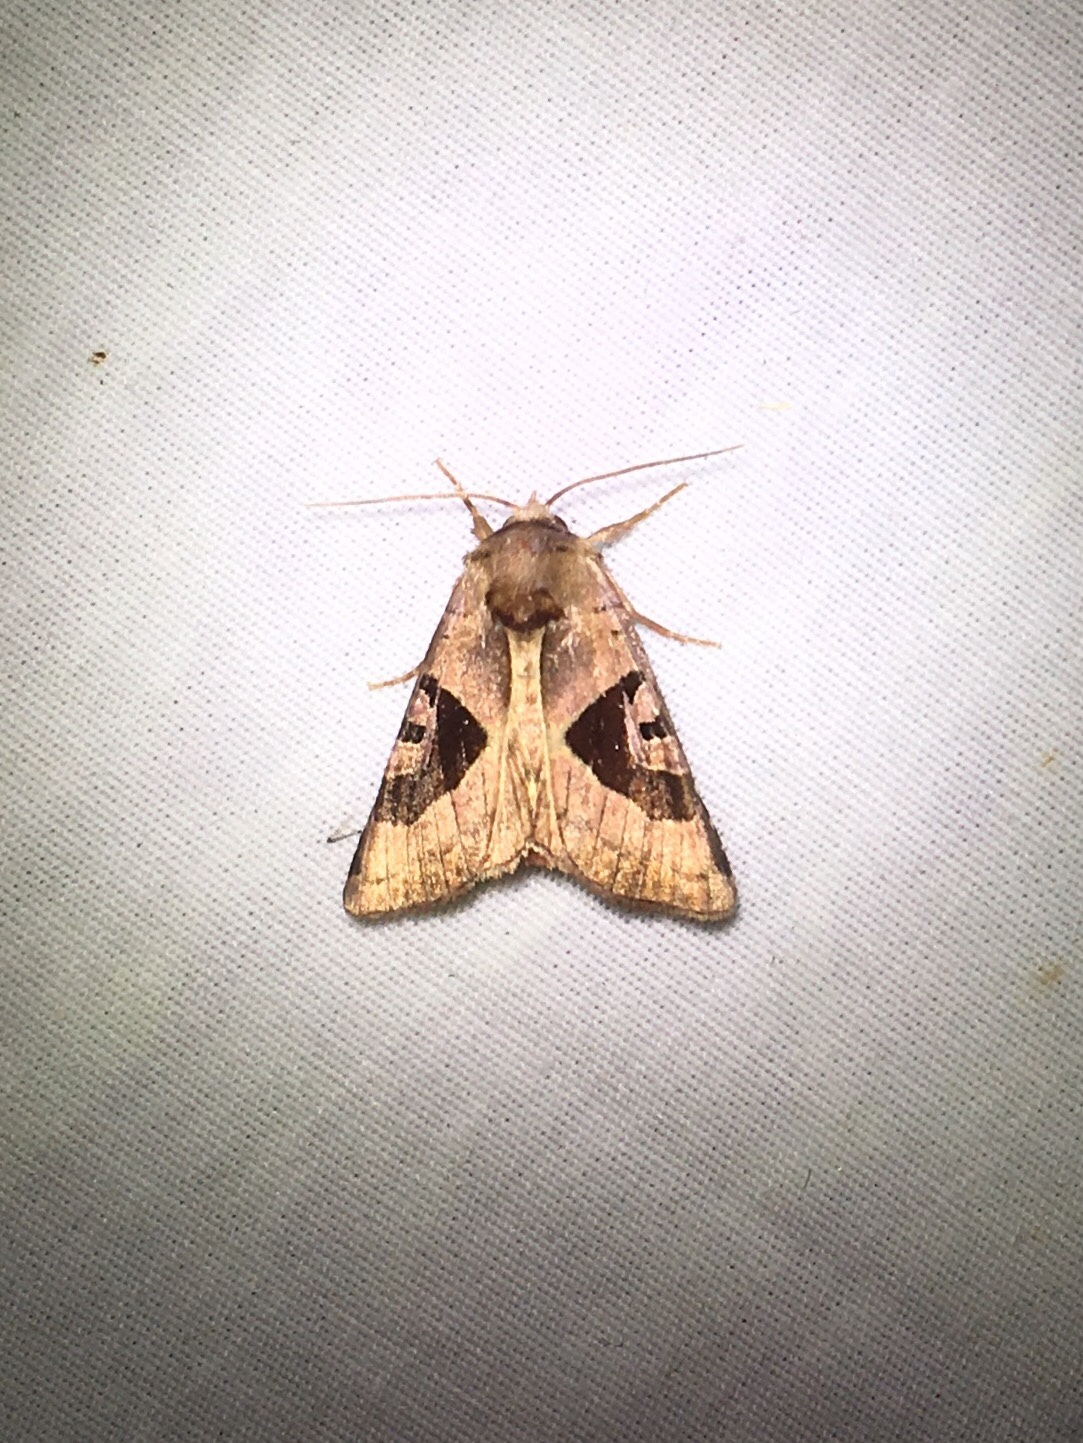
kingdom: Animalia
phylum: Arthropoda
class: Insecta
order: Lepidoptera
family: Noctuidae
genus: Conservula
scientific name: Conservula anodonta
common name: Sharp angle shades
